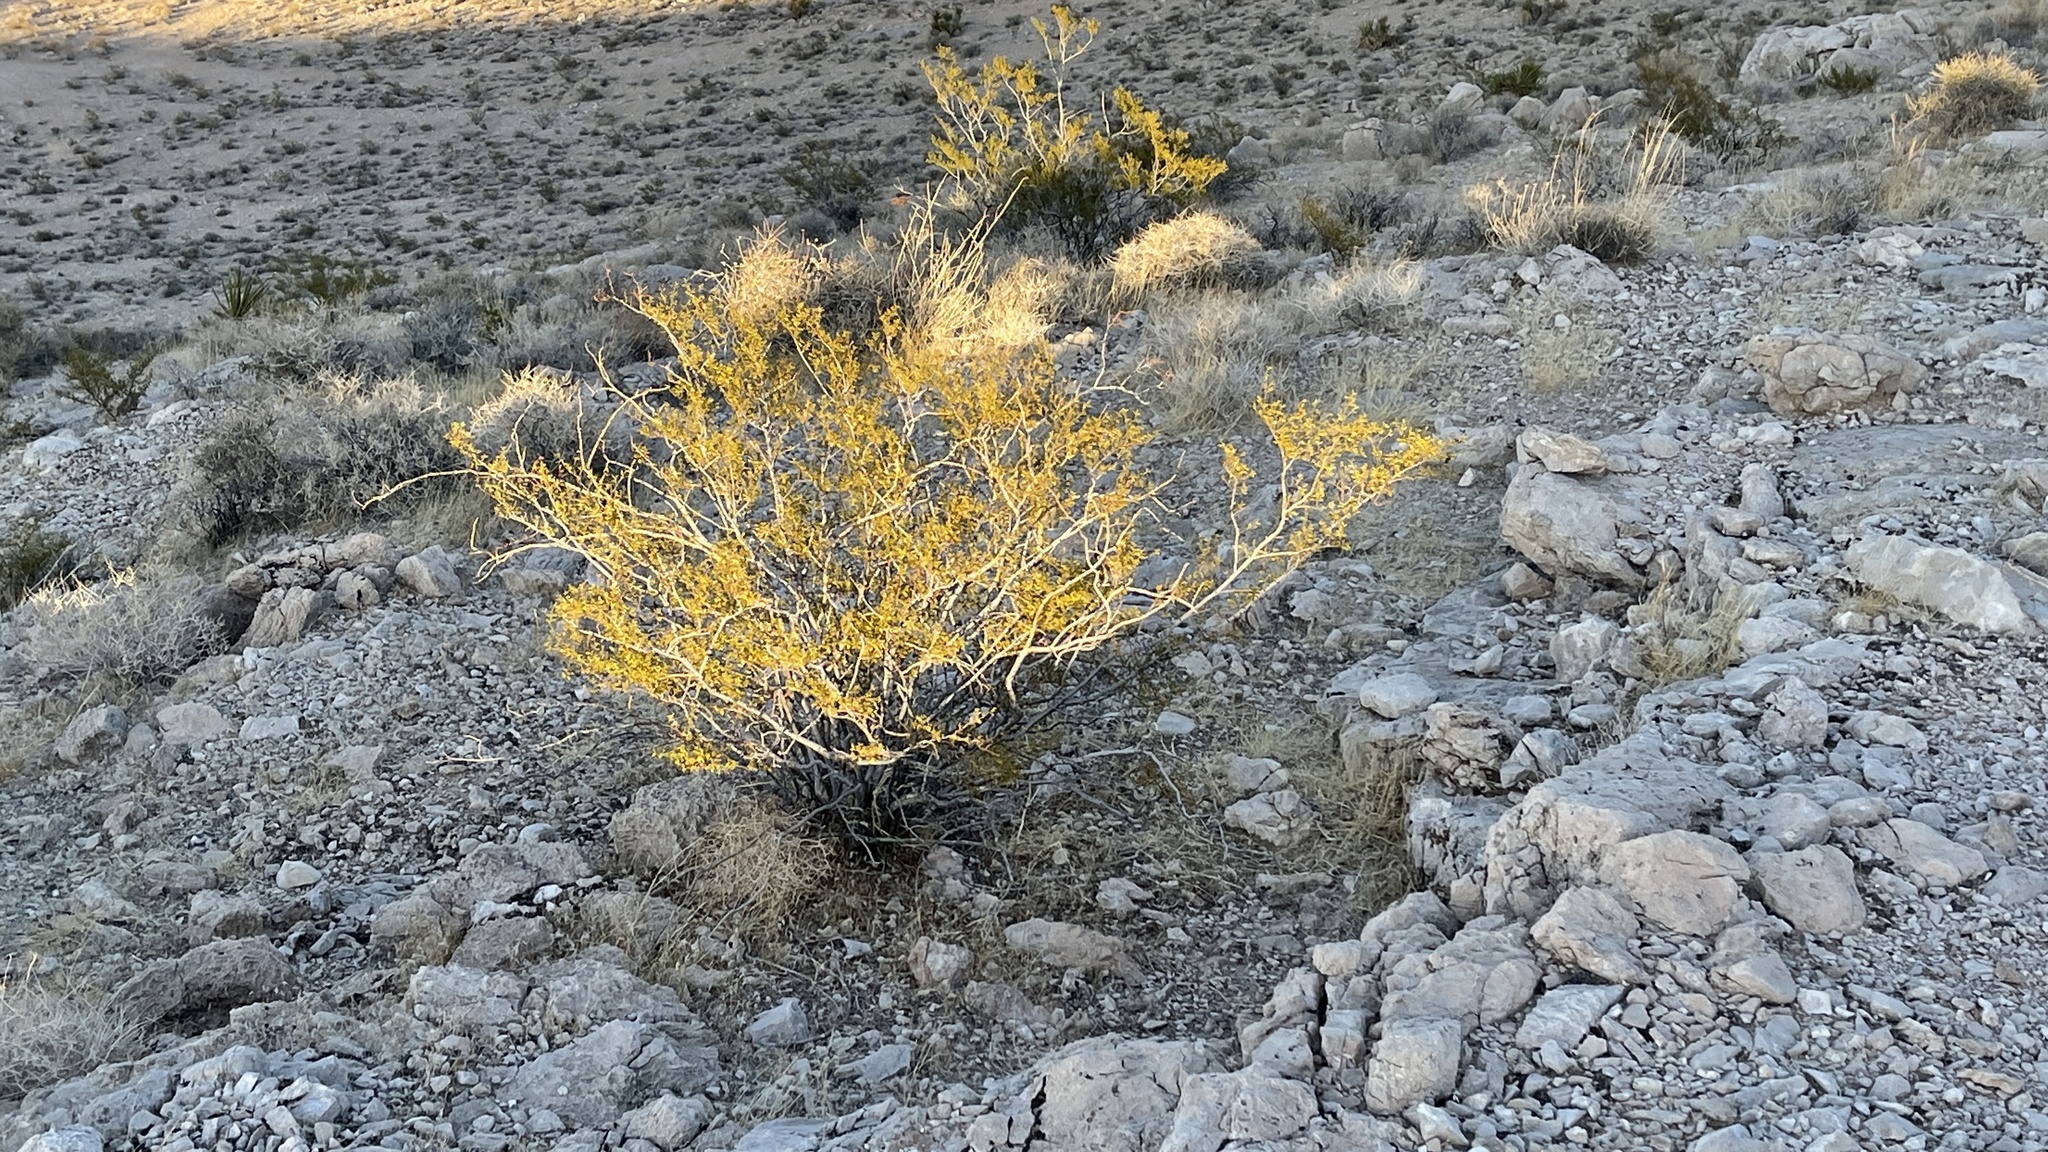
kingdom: Plantae
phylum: Tracheophyta
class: Magnoliopsida
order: Zygophyllales
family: Zygophyllaceae
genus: Larrea
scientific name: Larrea tridentata
